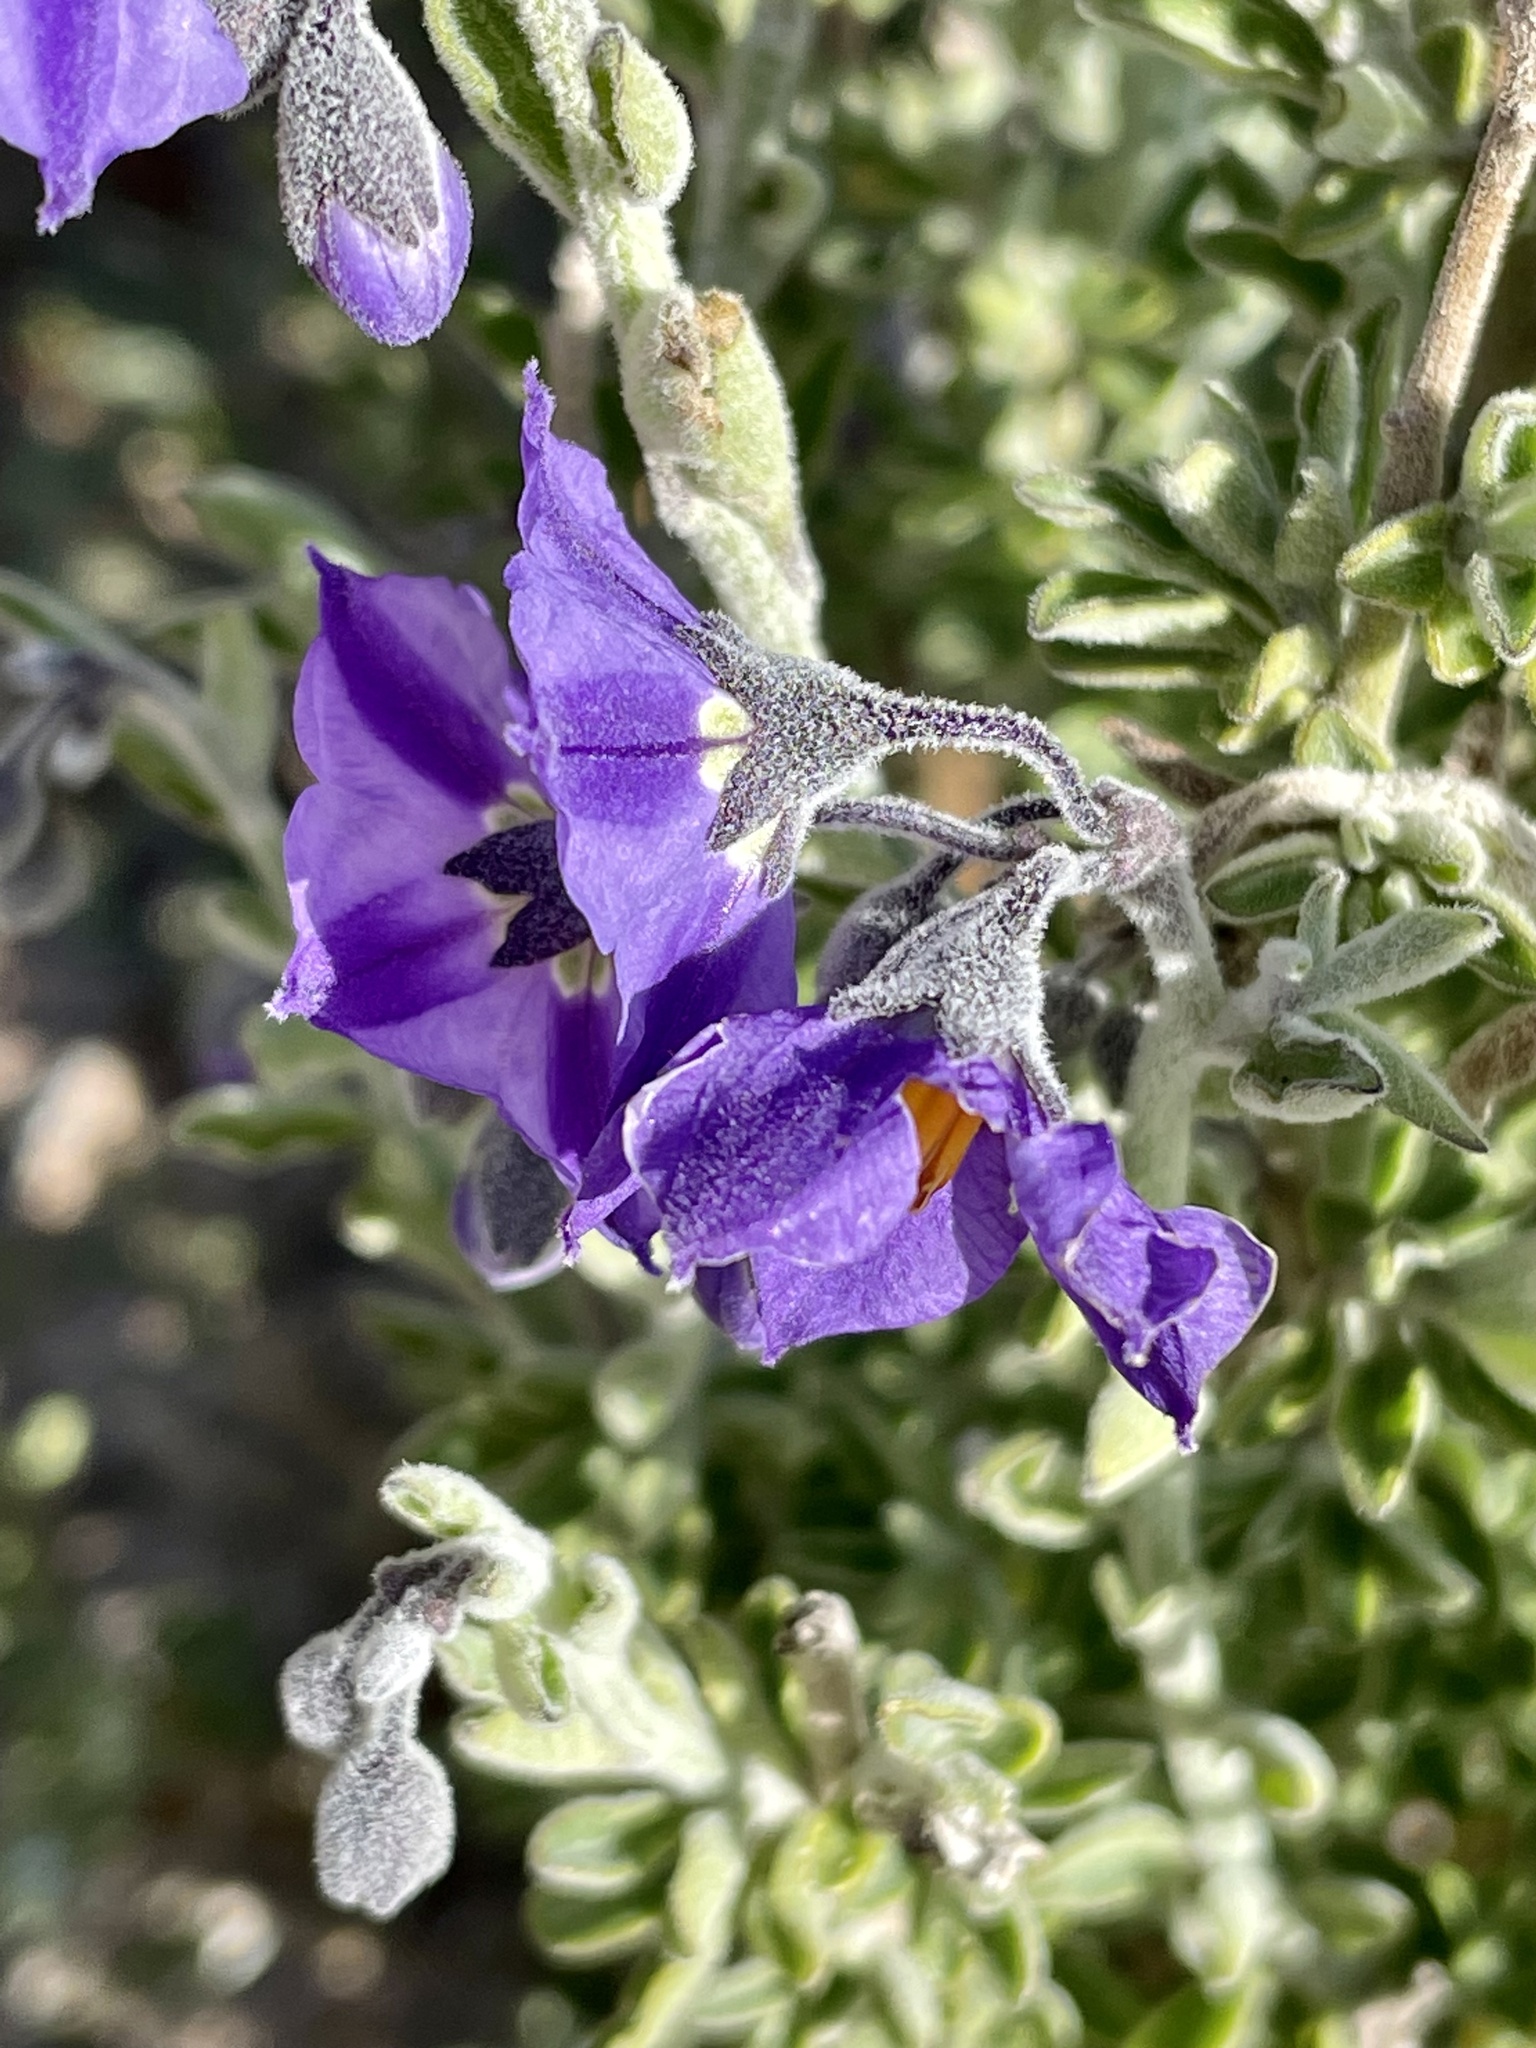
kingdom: Plantae
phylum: Tracheophyta
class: Magnoliopsida
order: Solanales
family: Solanaceae
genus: Solanum
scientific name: Solanum umbelliferum
